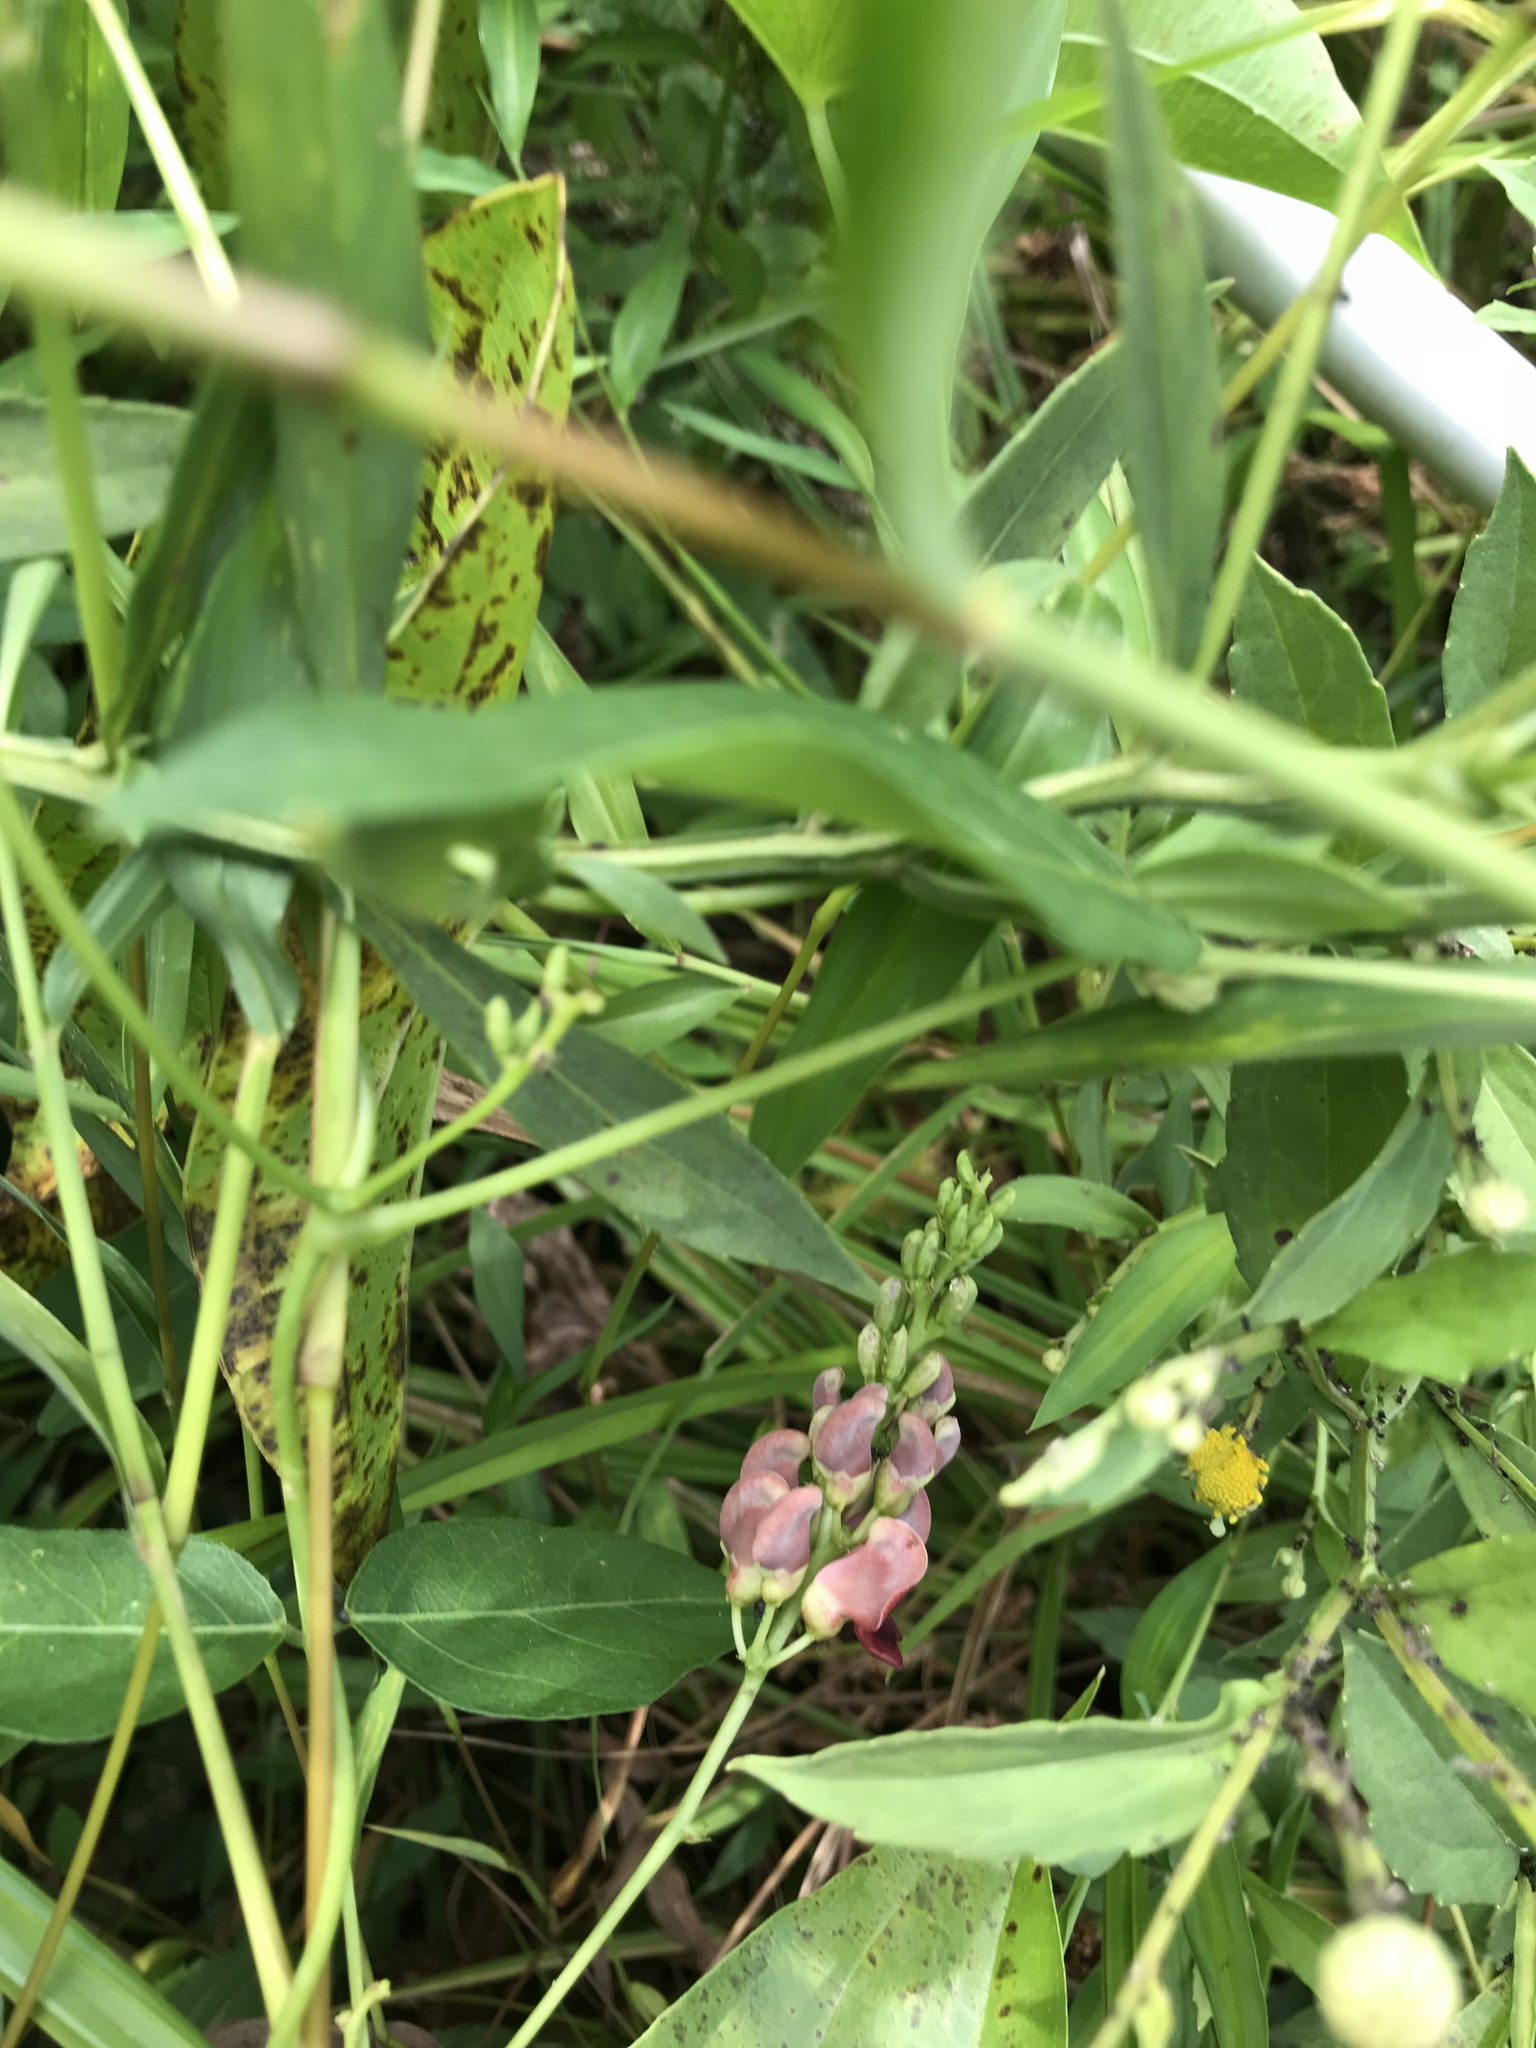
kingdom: Plantae
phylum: Tracheophyta
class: Magnoliopsida
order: Fabales
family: Fabaceae
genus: Apios
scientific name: Apios americana
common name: American potato-bean
